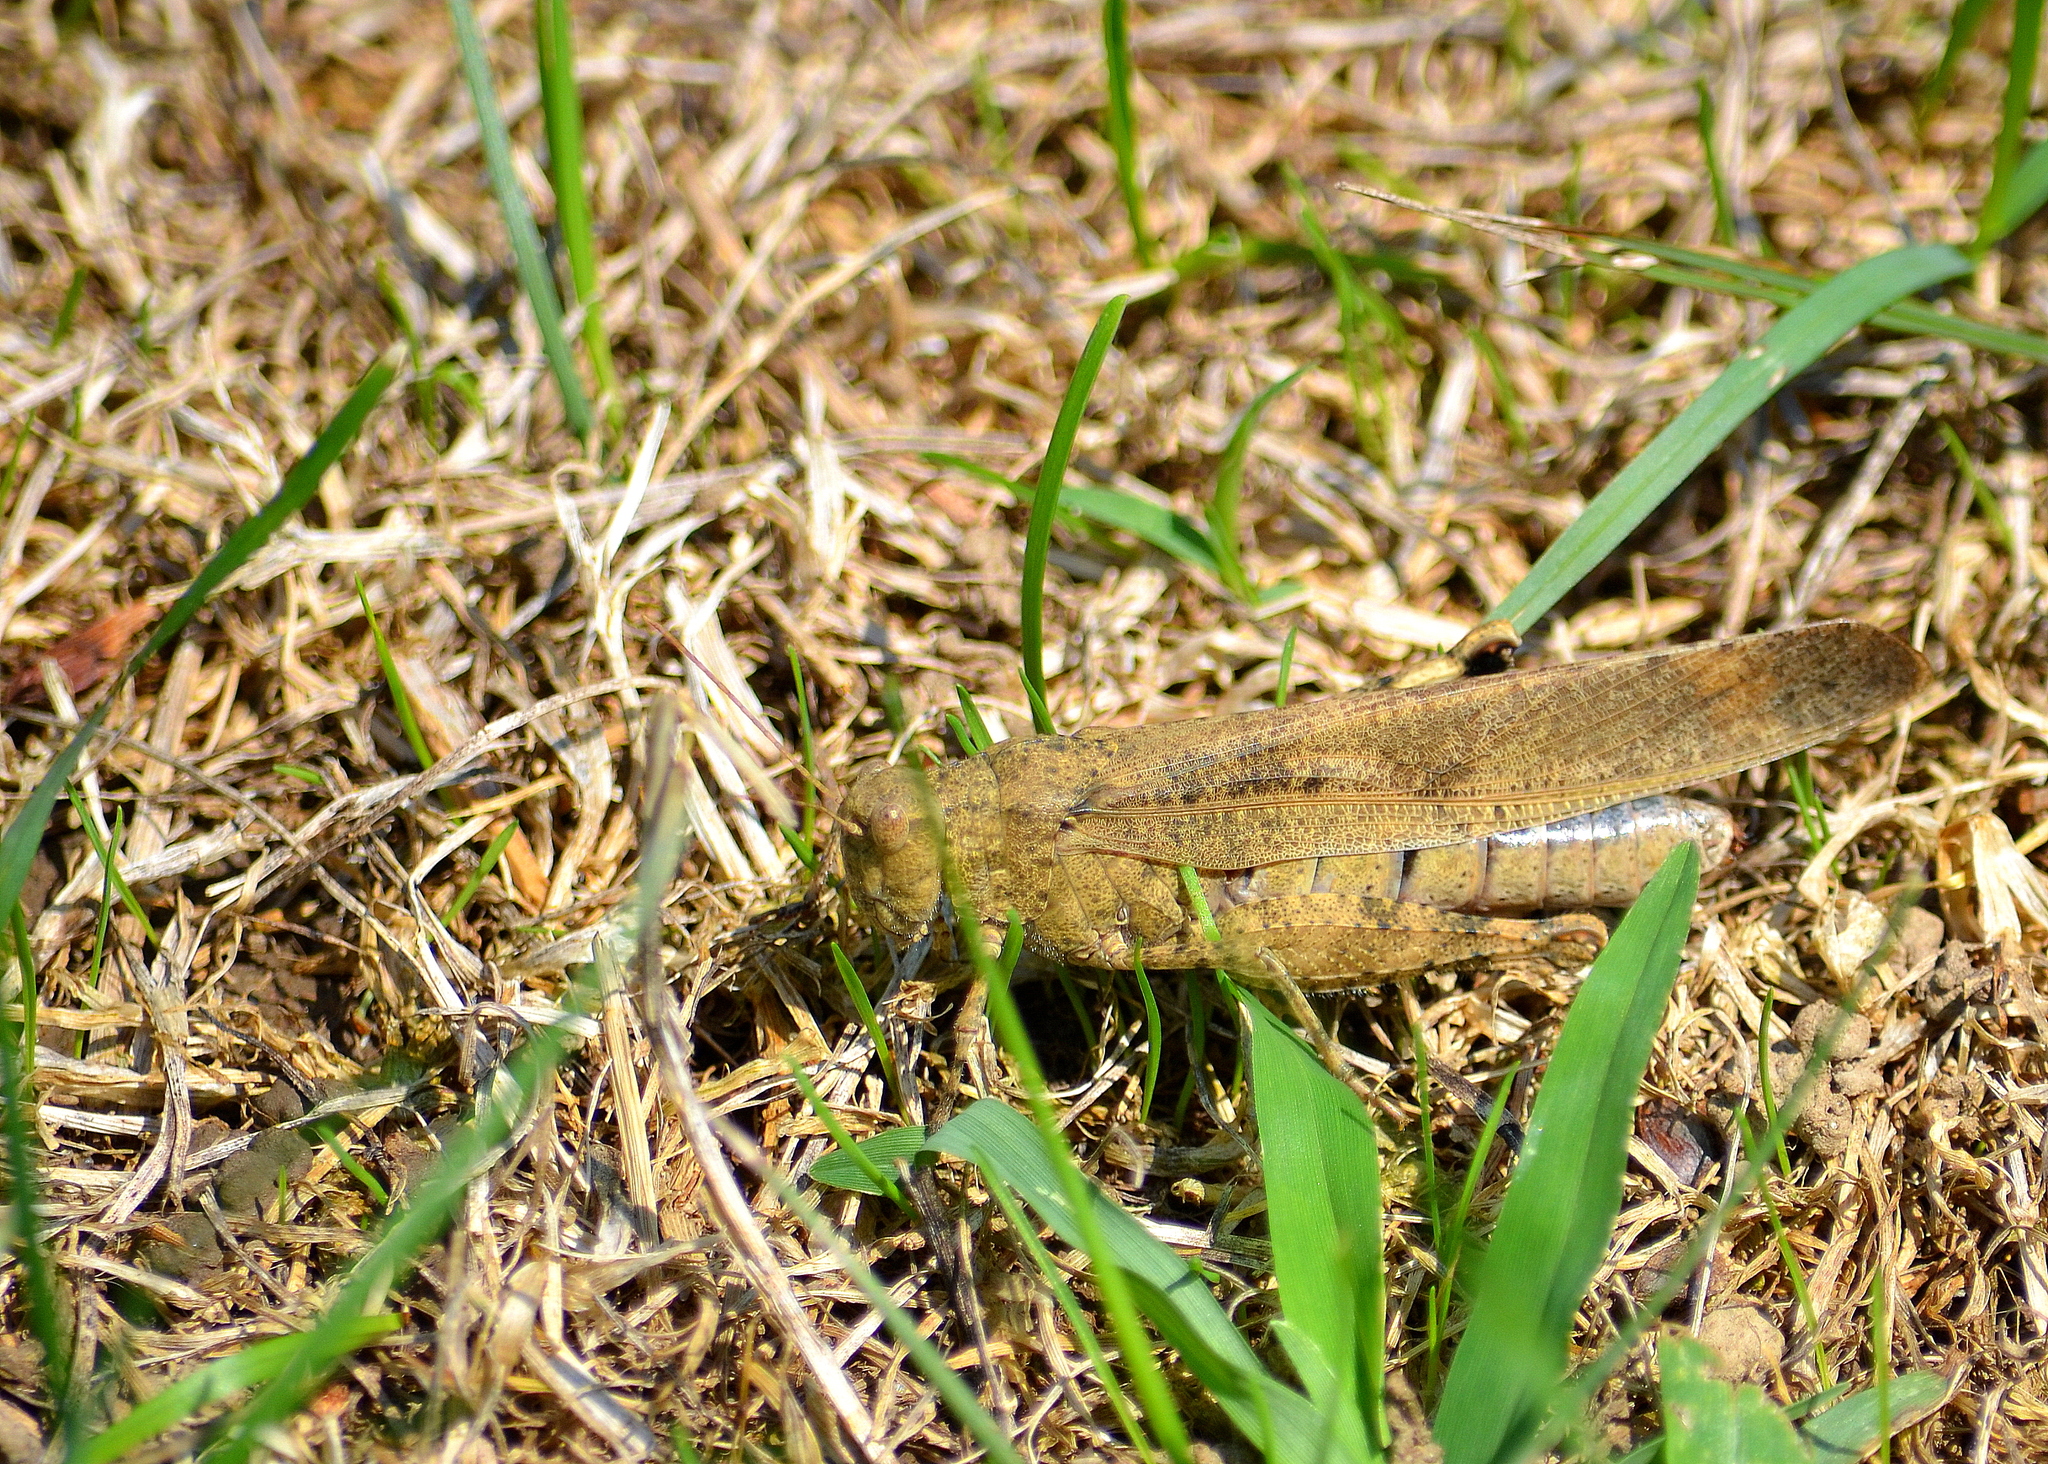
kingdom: Animalia
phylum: Arthropoda
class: Insecta
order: Orthoptera
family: Acrididae
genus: Dissosteira
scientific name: Dissosteira carolina
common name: Carolina grasshopper
